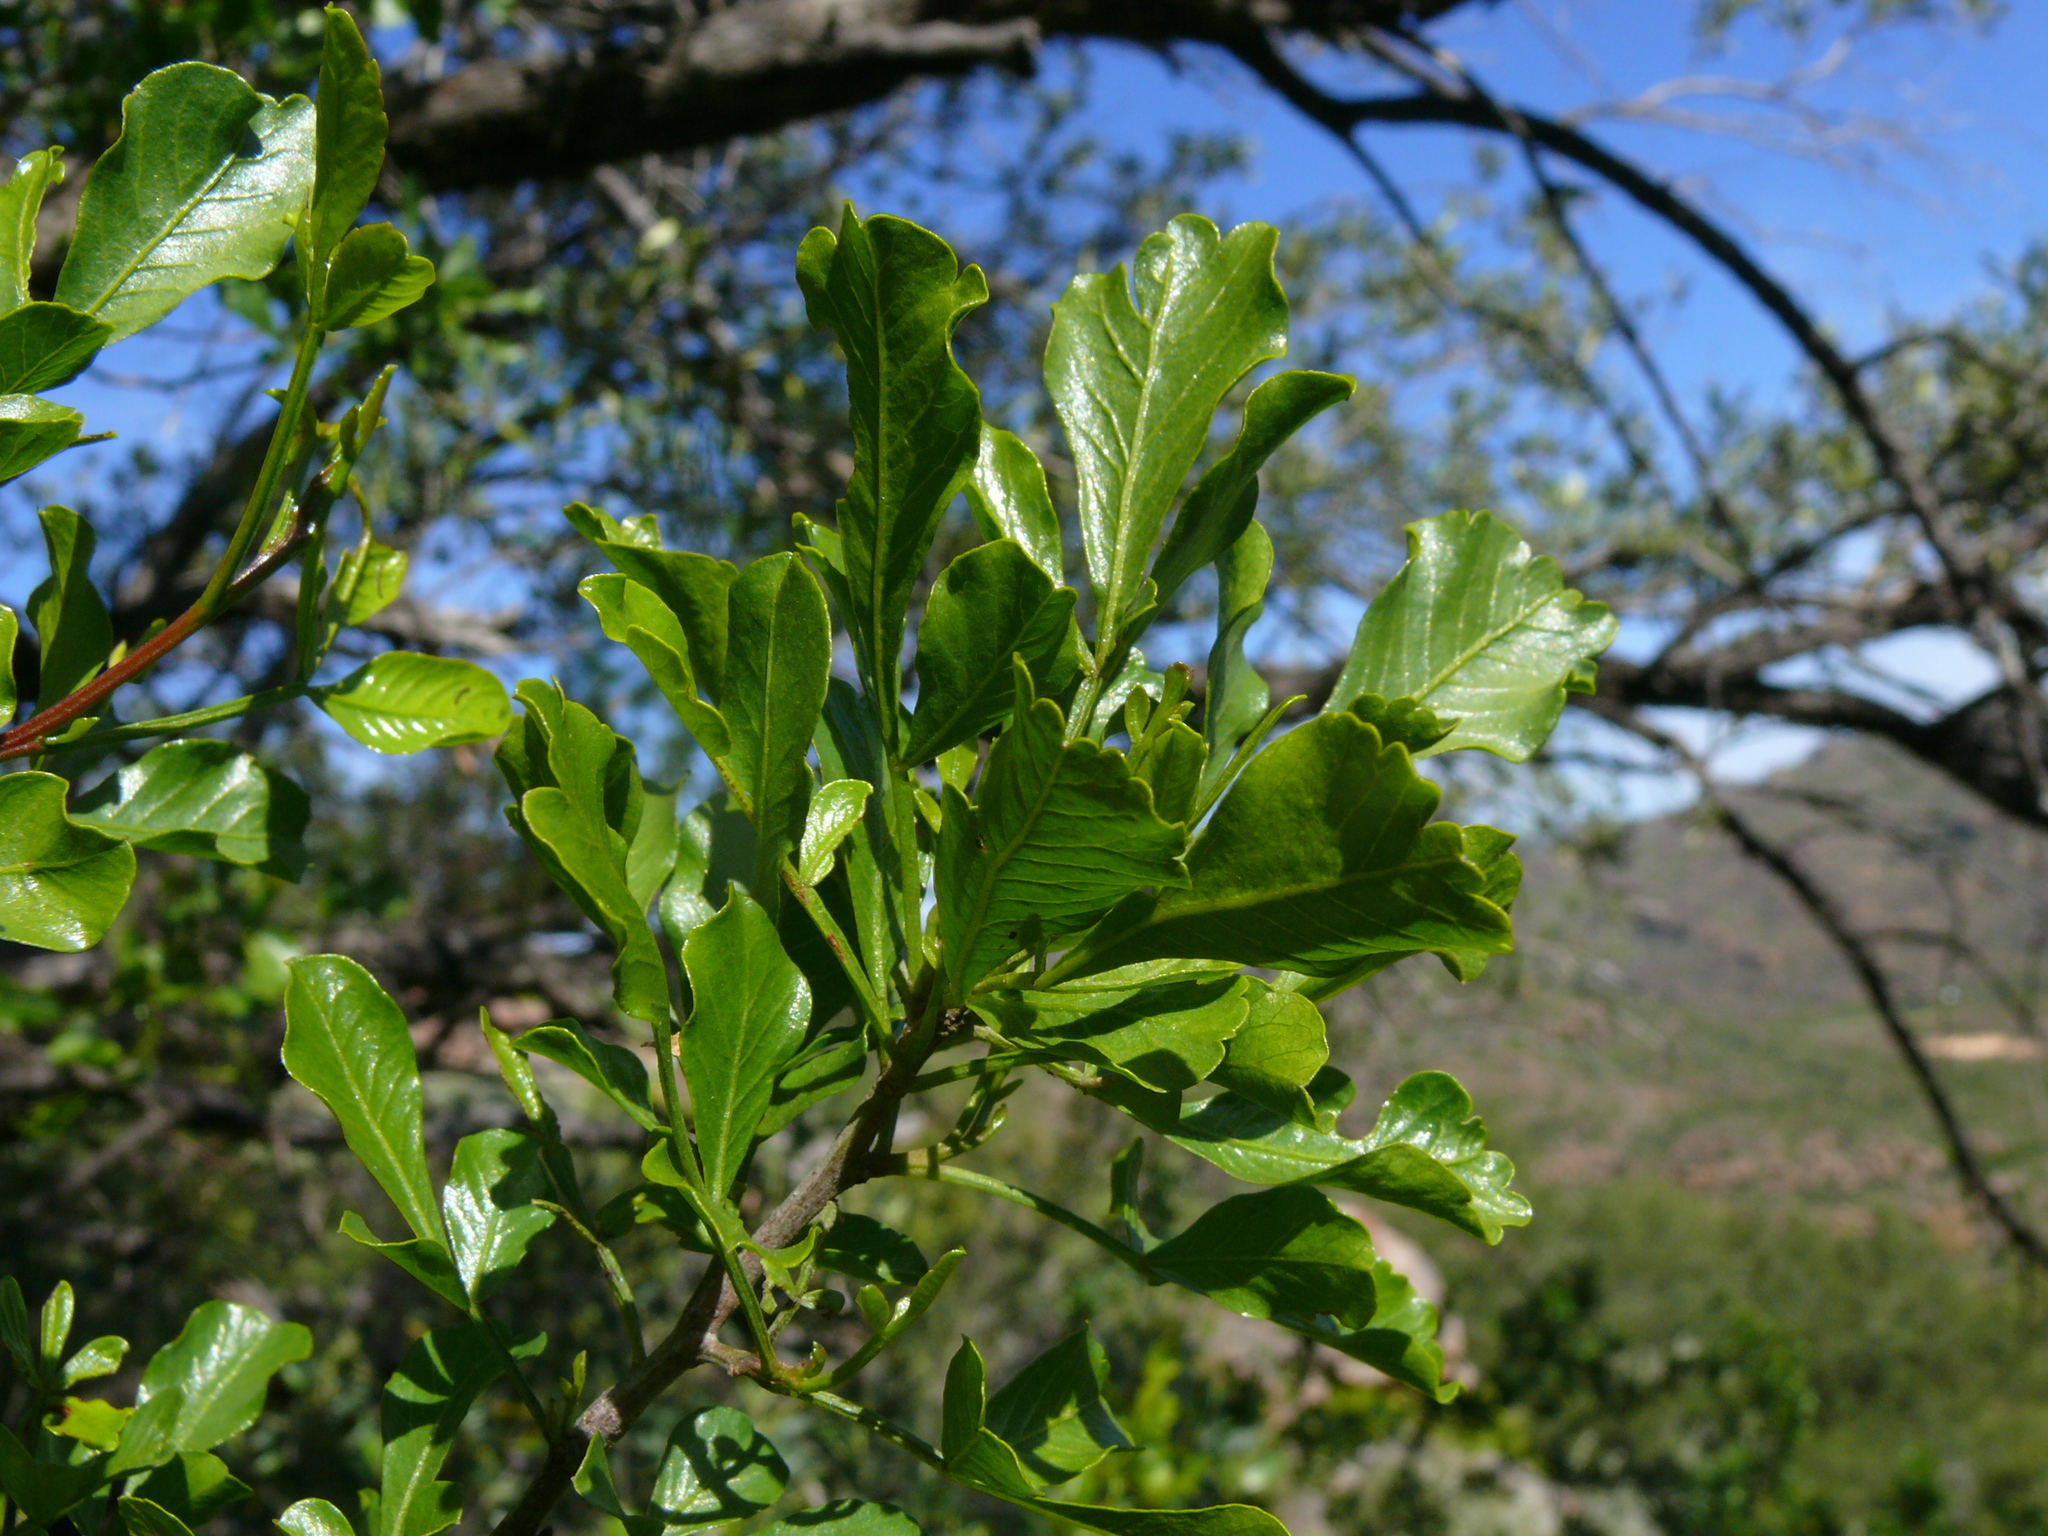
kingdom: Plantae
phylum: Tracheophyta
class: Magnoliopsida
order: Sapindales
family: Anacardiaceae
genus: Searsia
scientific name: Searsia undulata
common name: Namaqua kunibush
